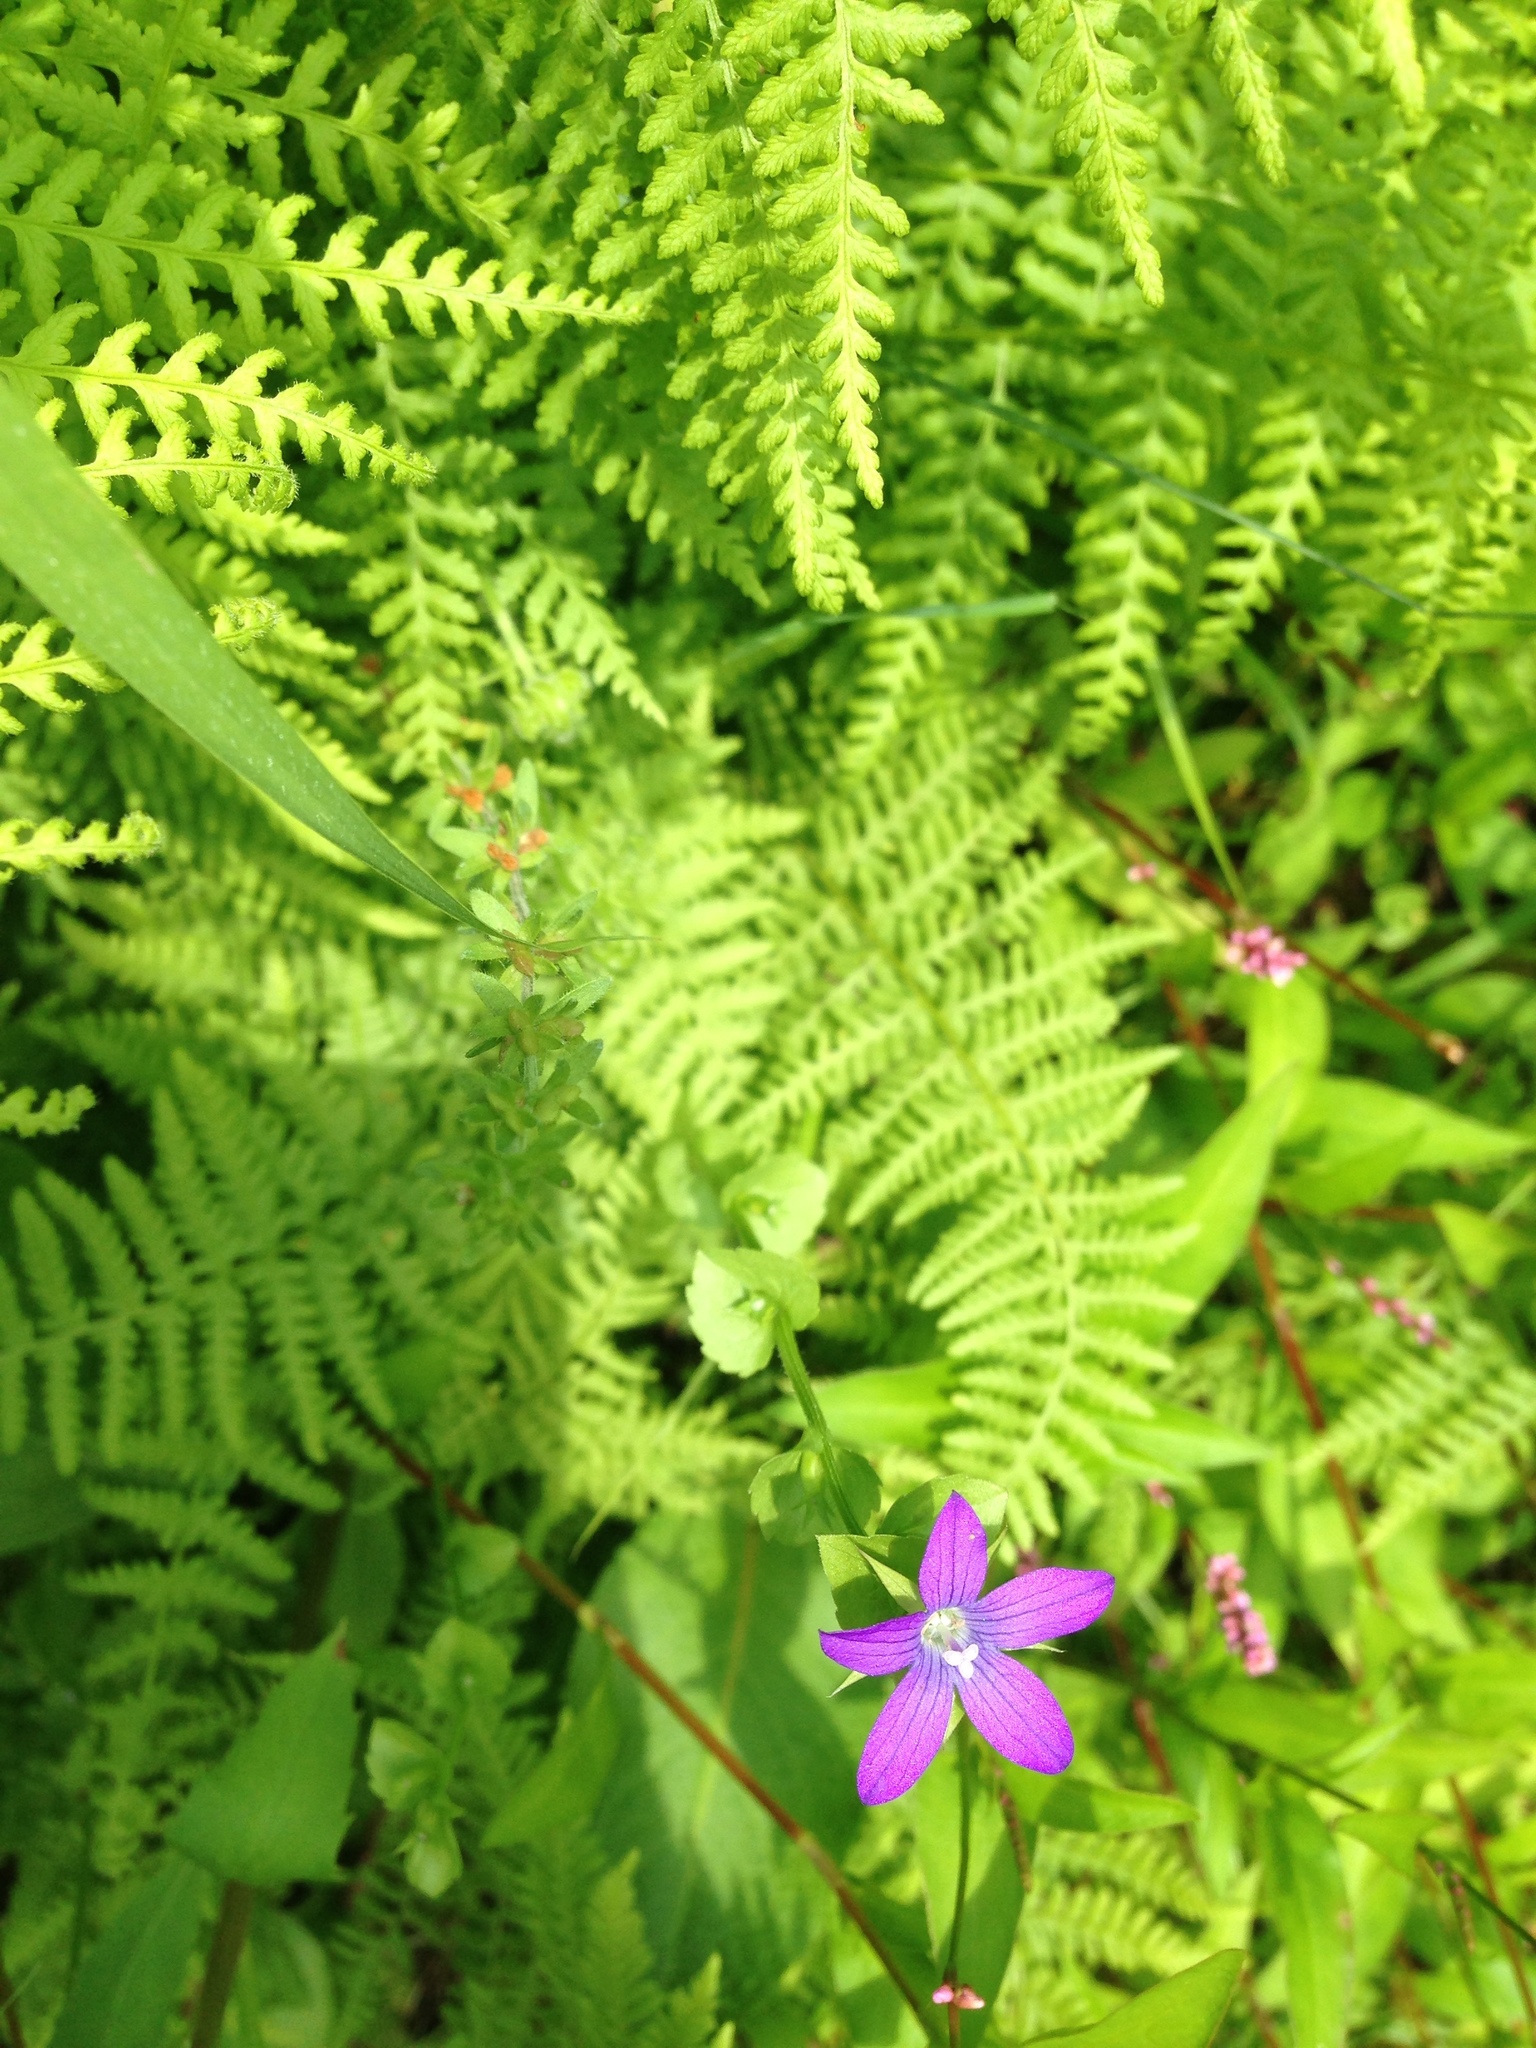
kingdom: Plantae
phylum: Tracheophyta
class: Magnoliopsida
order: Asterales
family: Campanulaceae
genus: Triodanis
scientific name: Triodanis perfoliata
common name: Clasping venus' looking-glass
